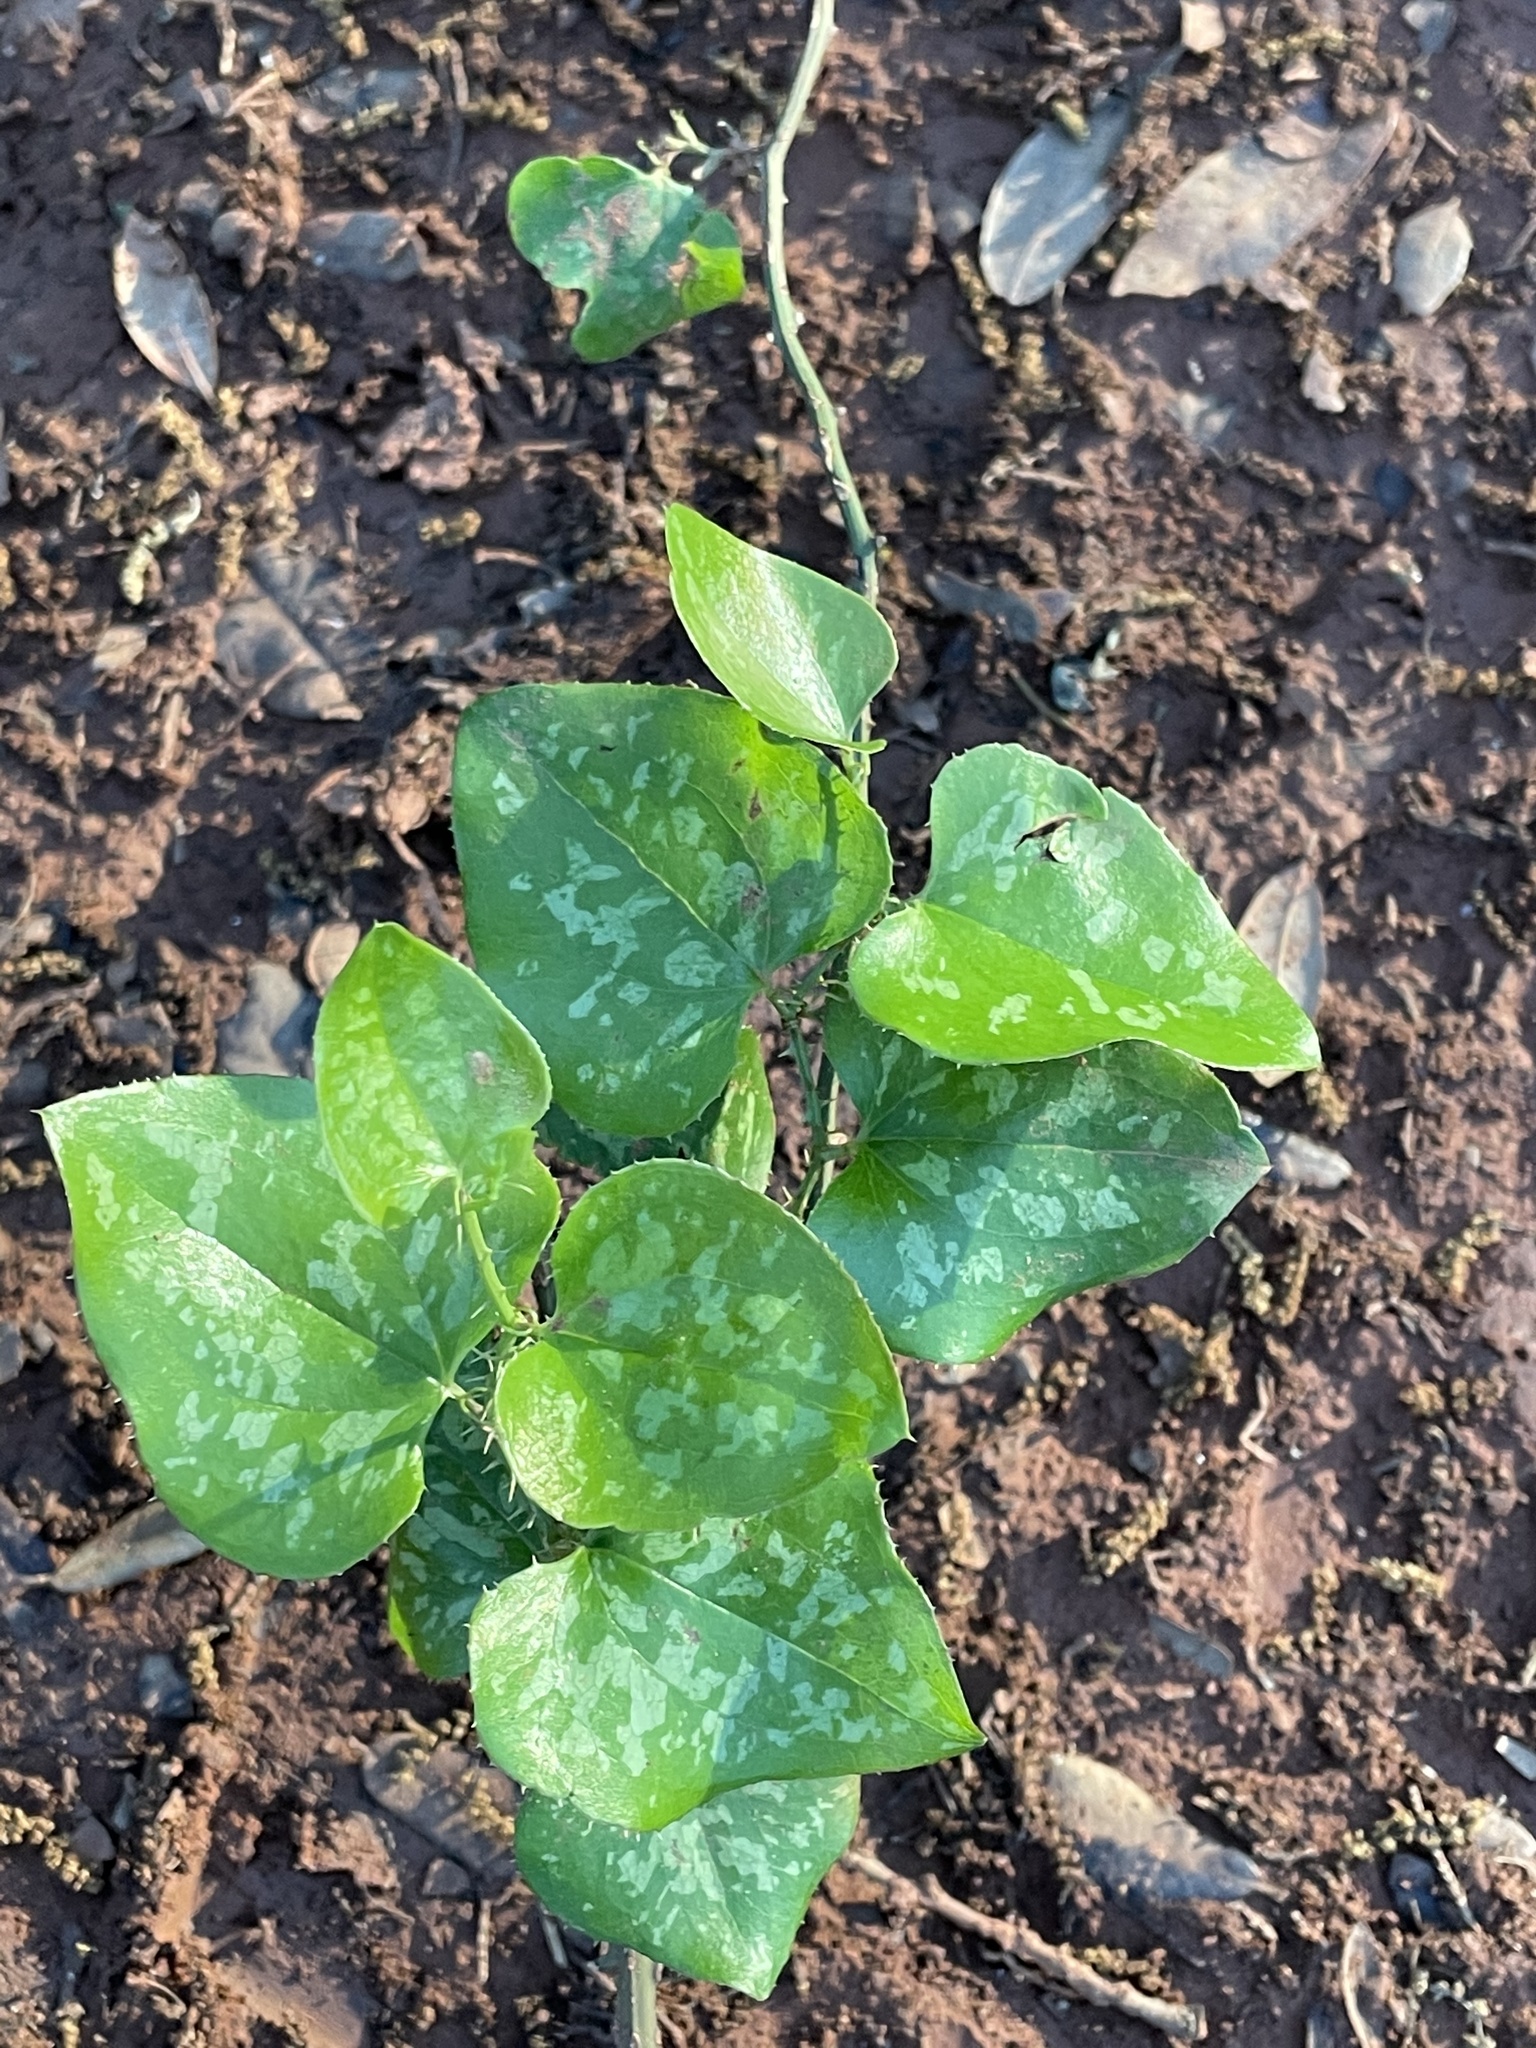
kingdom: Plantae
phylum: Tracheophyta
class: Liliopsida
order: Liliales
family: Smilacaceae
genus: Smilax
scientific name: Smilax bona-nox
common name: Catbrier
